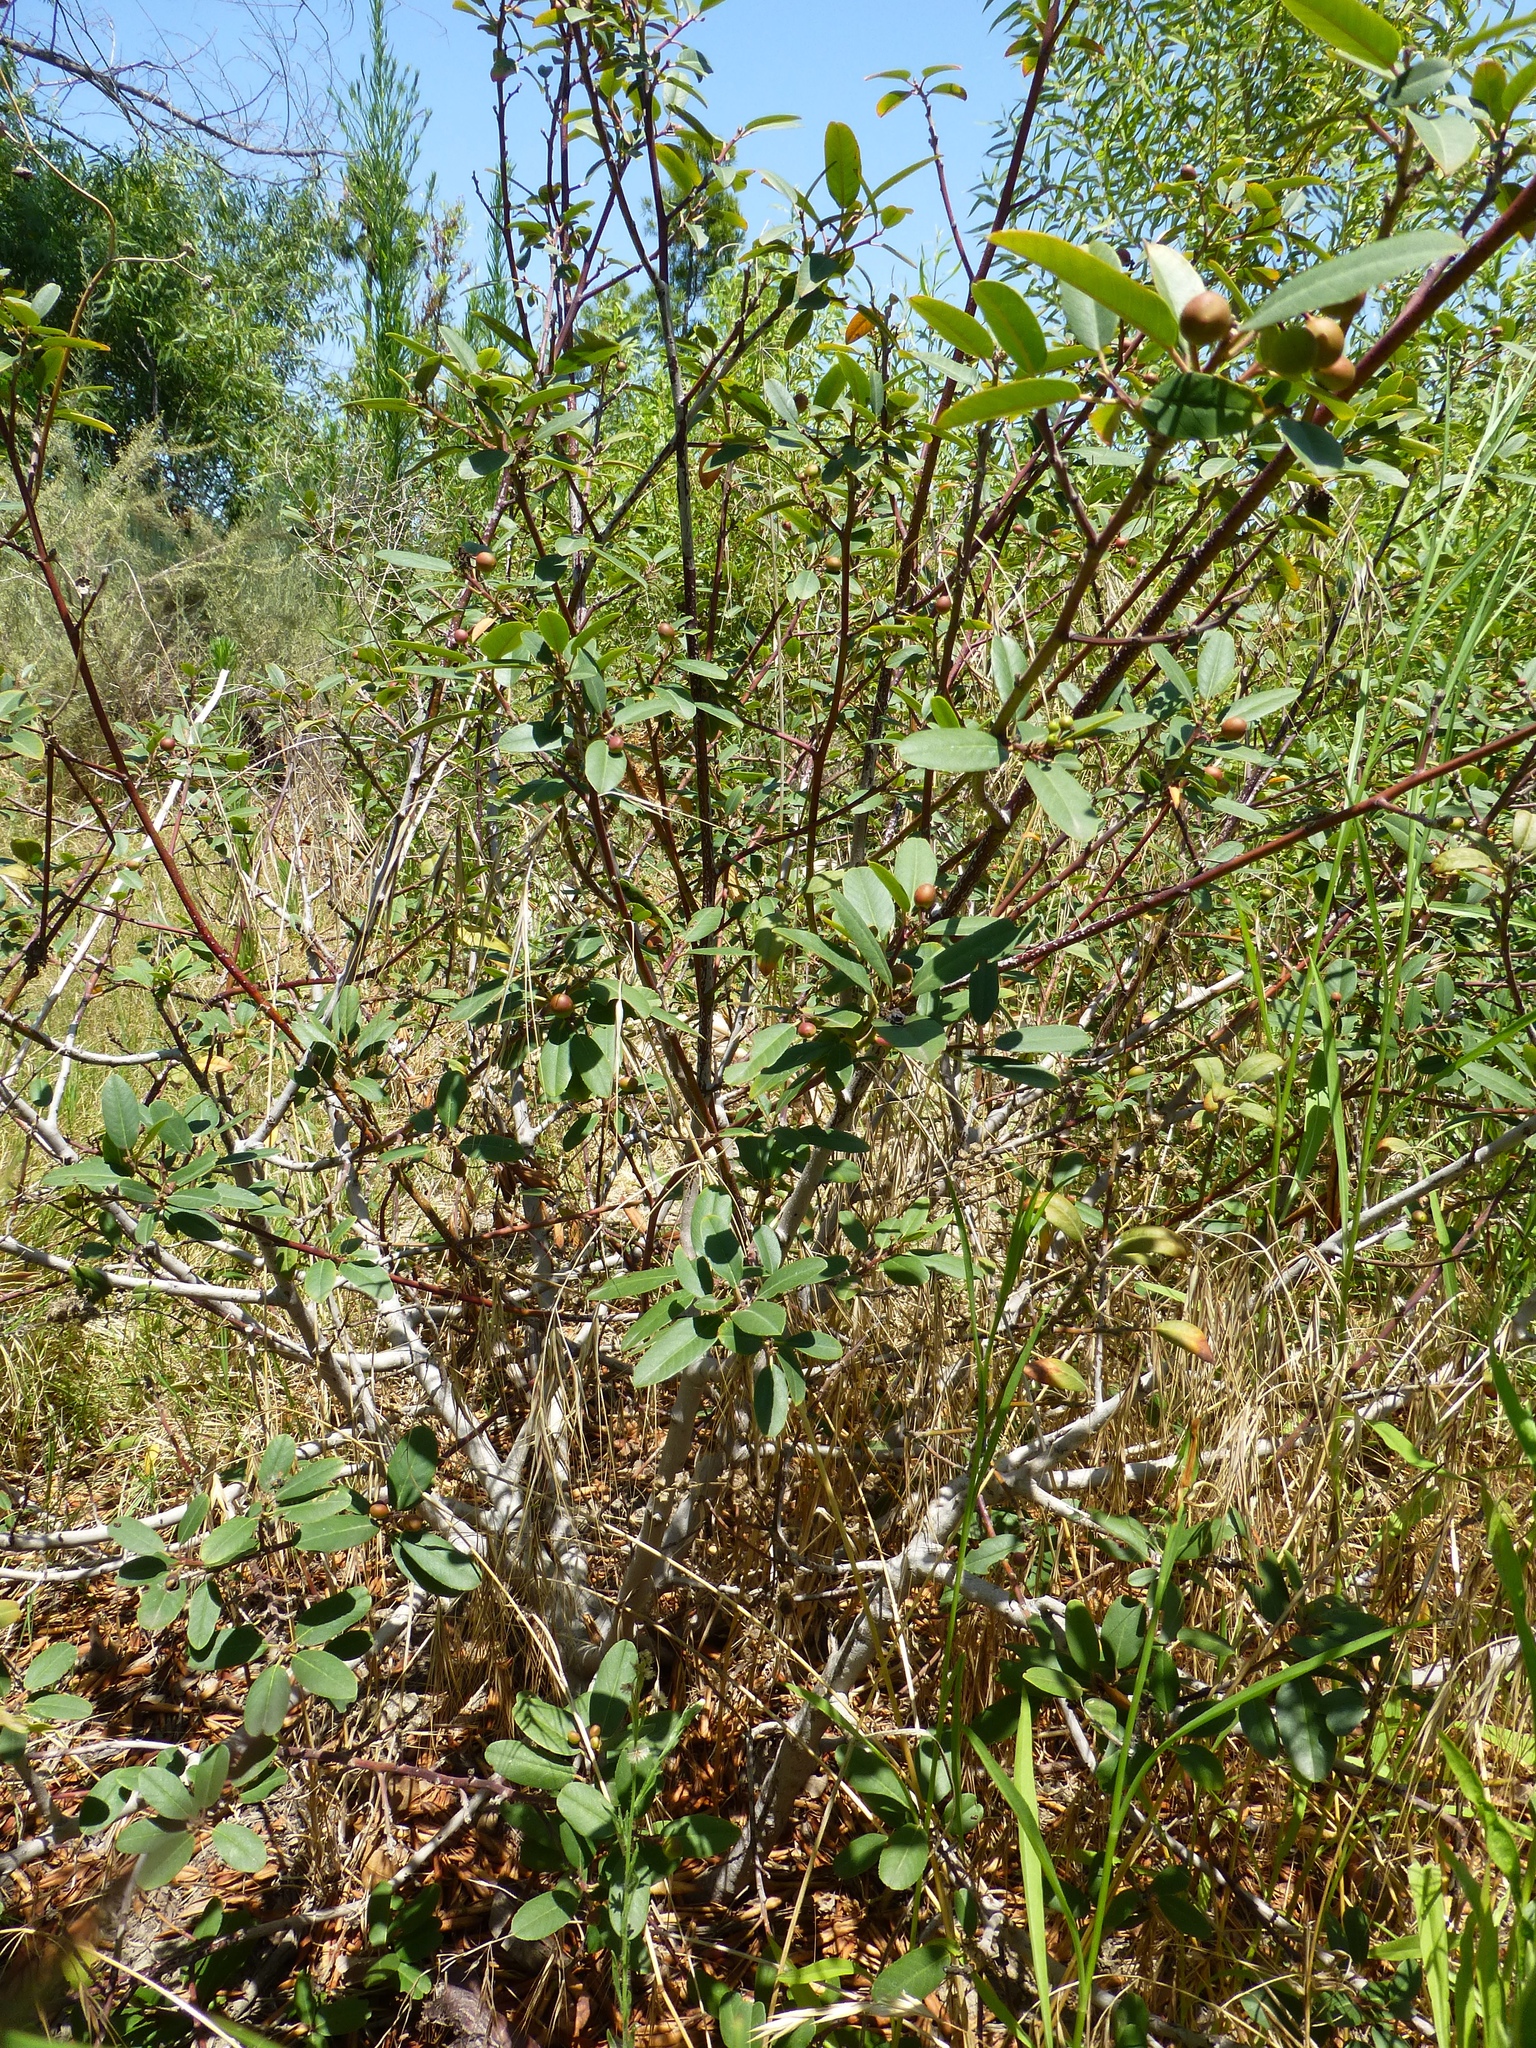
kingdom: Plantae
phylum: Tracheophyta
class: Magnoliopsida
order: Rosales
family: Rhamnaceae
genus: Frangula
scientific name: Frangula californica
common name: California buckthorn
